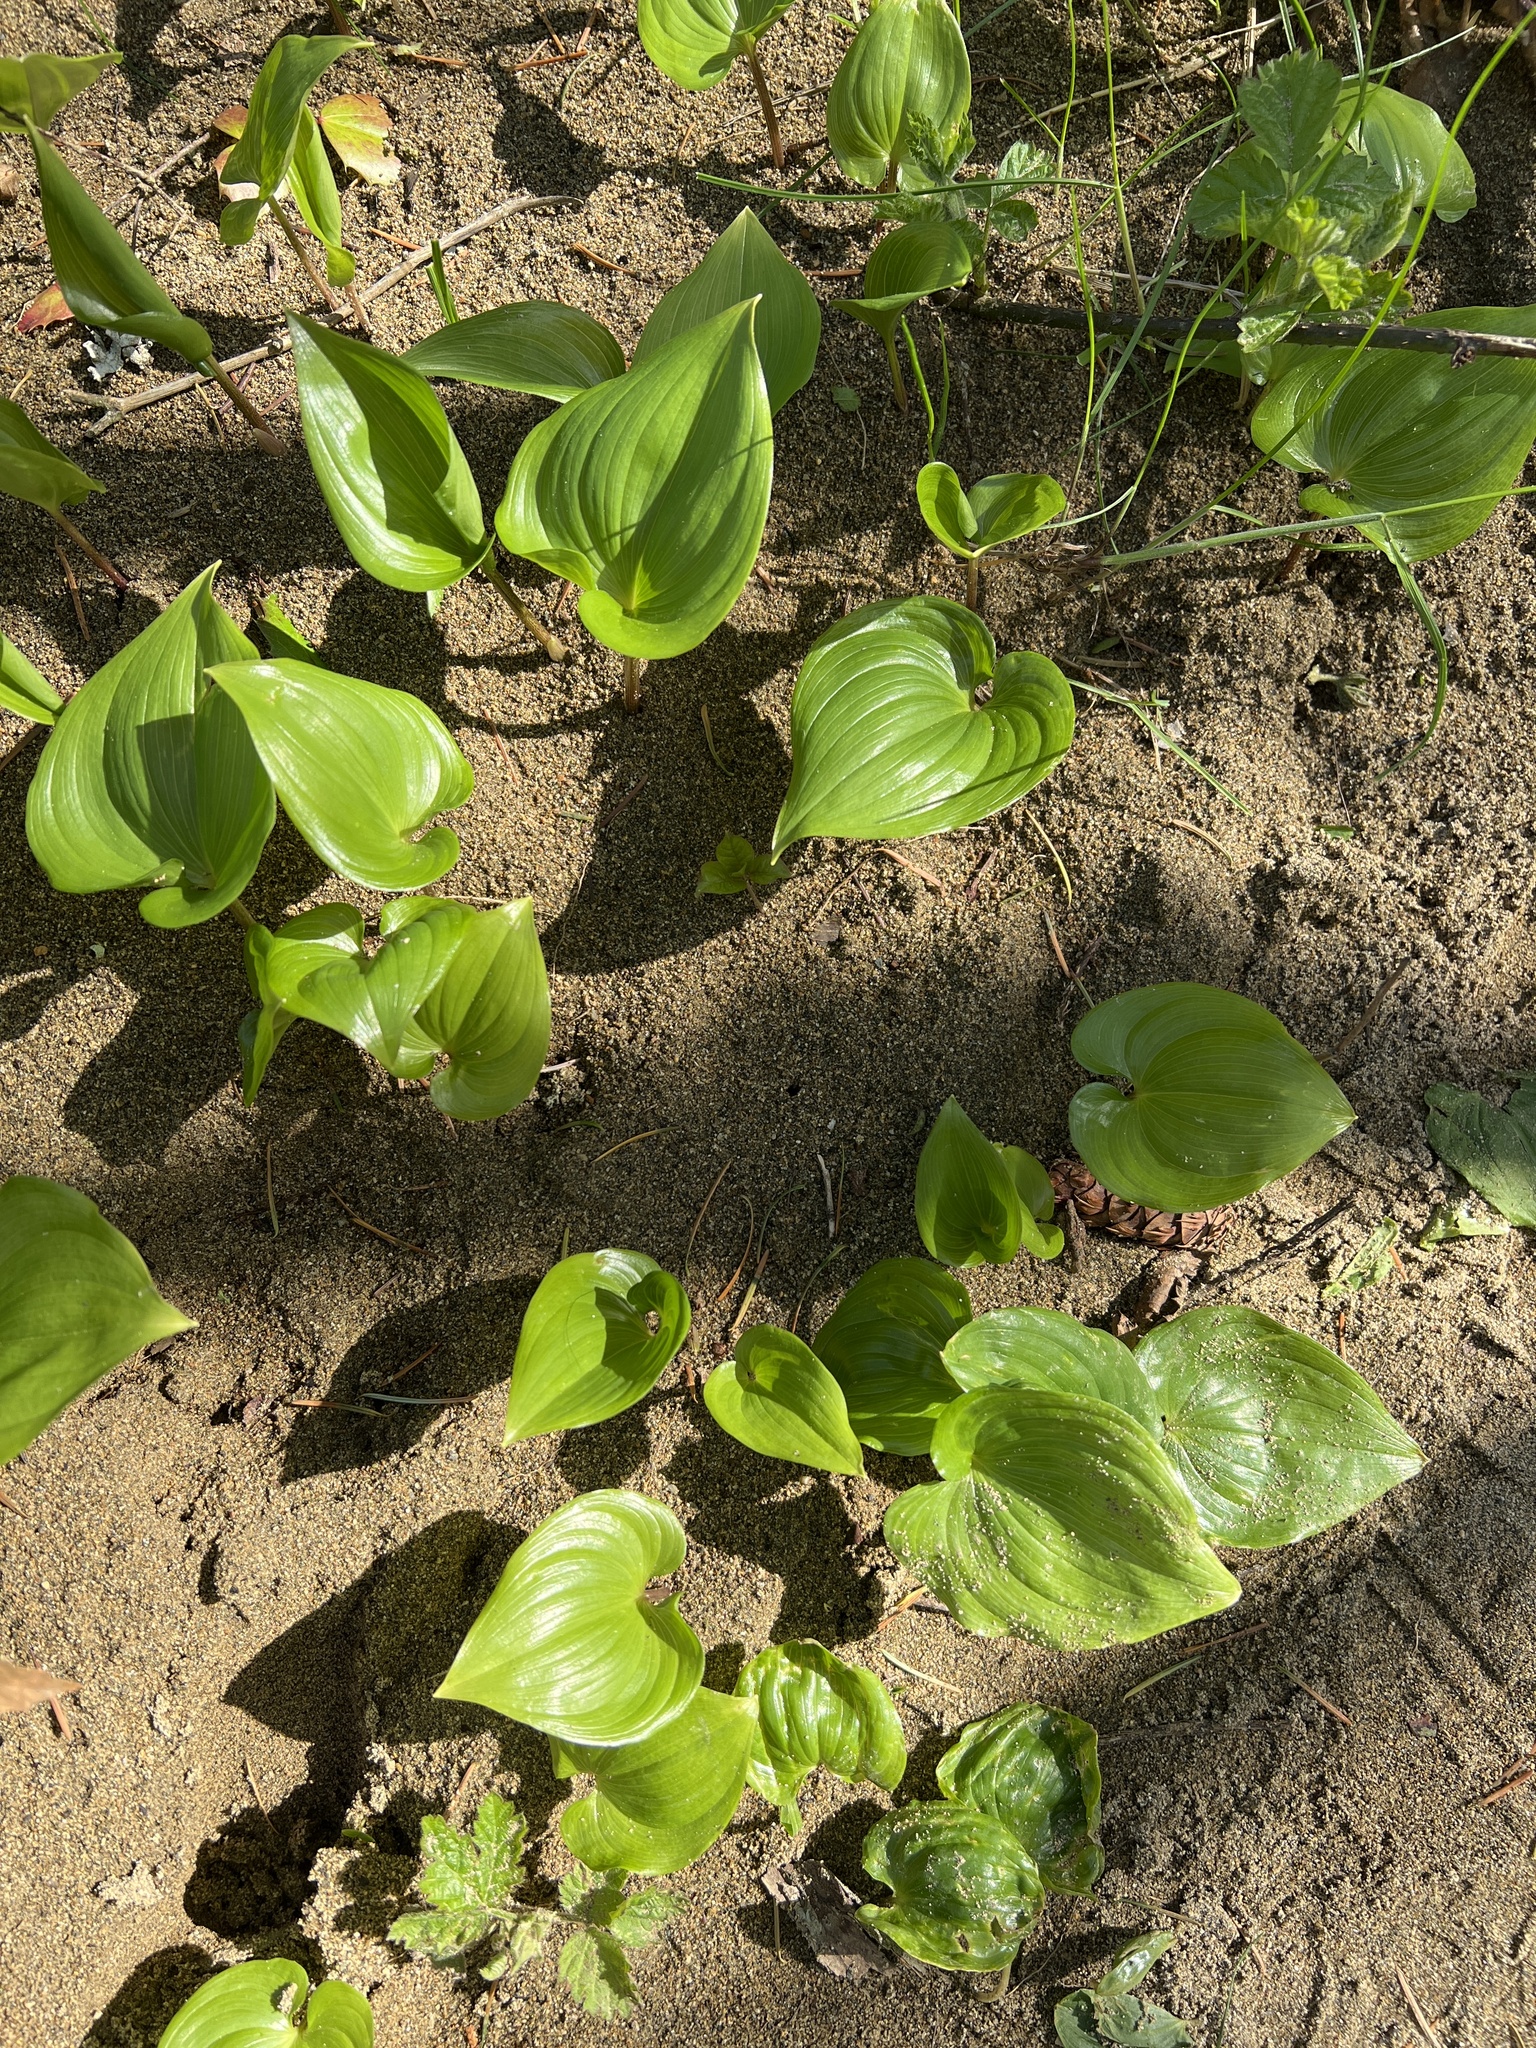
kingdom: Plantae
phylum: Tracheophyta
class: Liliopsida
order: Asparagales
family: Asparagaceae
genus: Maianthemum
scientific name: Maianthemum dilatatum
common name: False lily-of-the-valley
